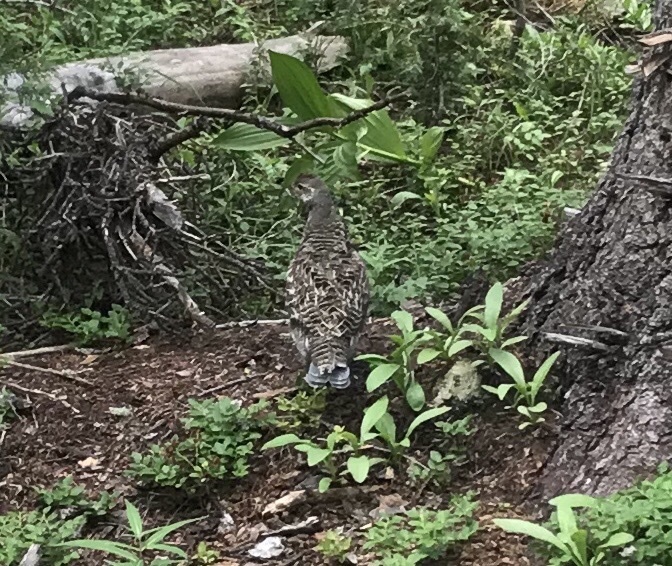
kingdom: Animalia
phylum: Chordata
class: Aves
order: Galliformes
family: Phasianidae
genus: Dendragapus
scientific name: Dendragapus obscurus
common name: Dusky grouse
